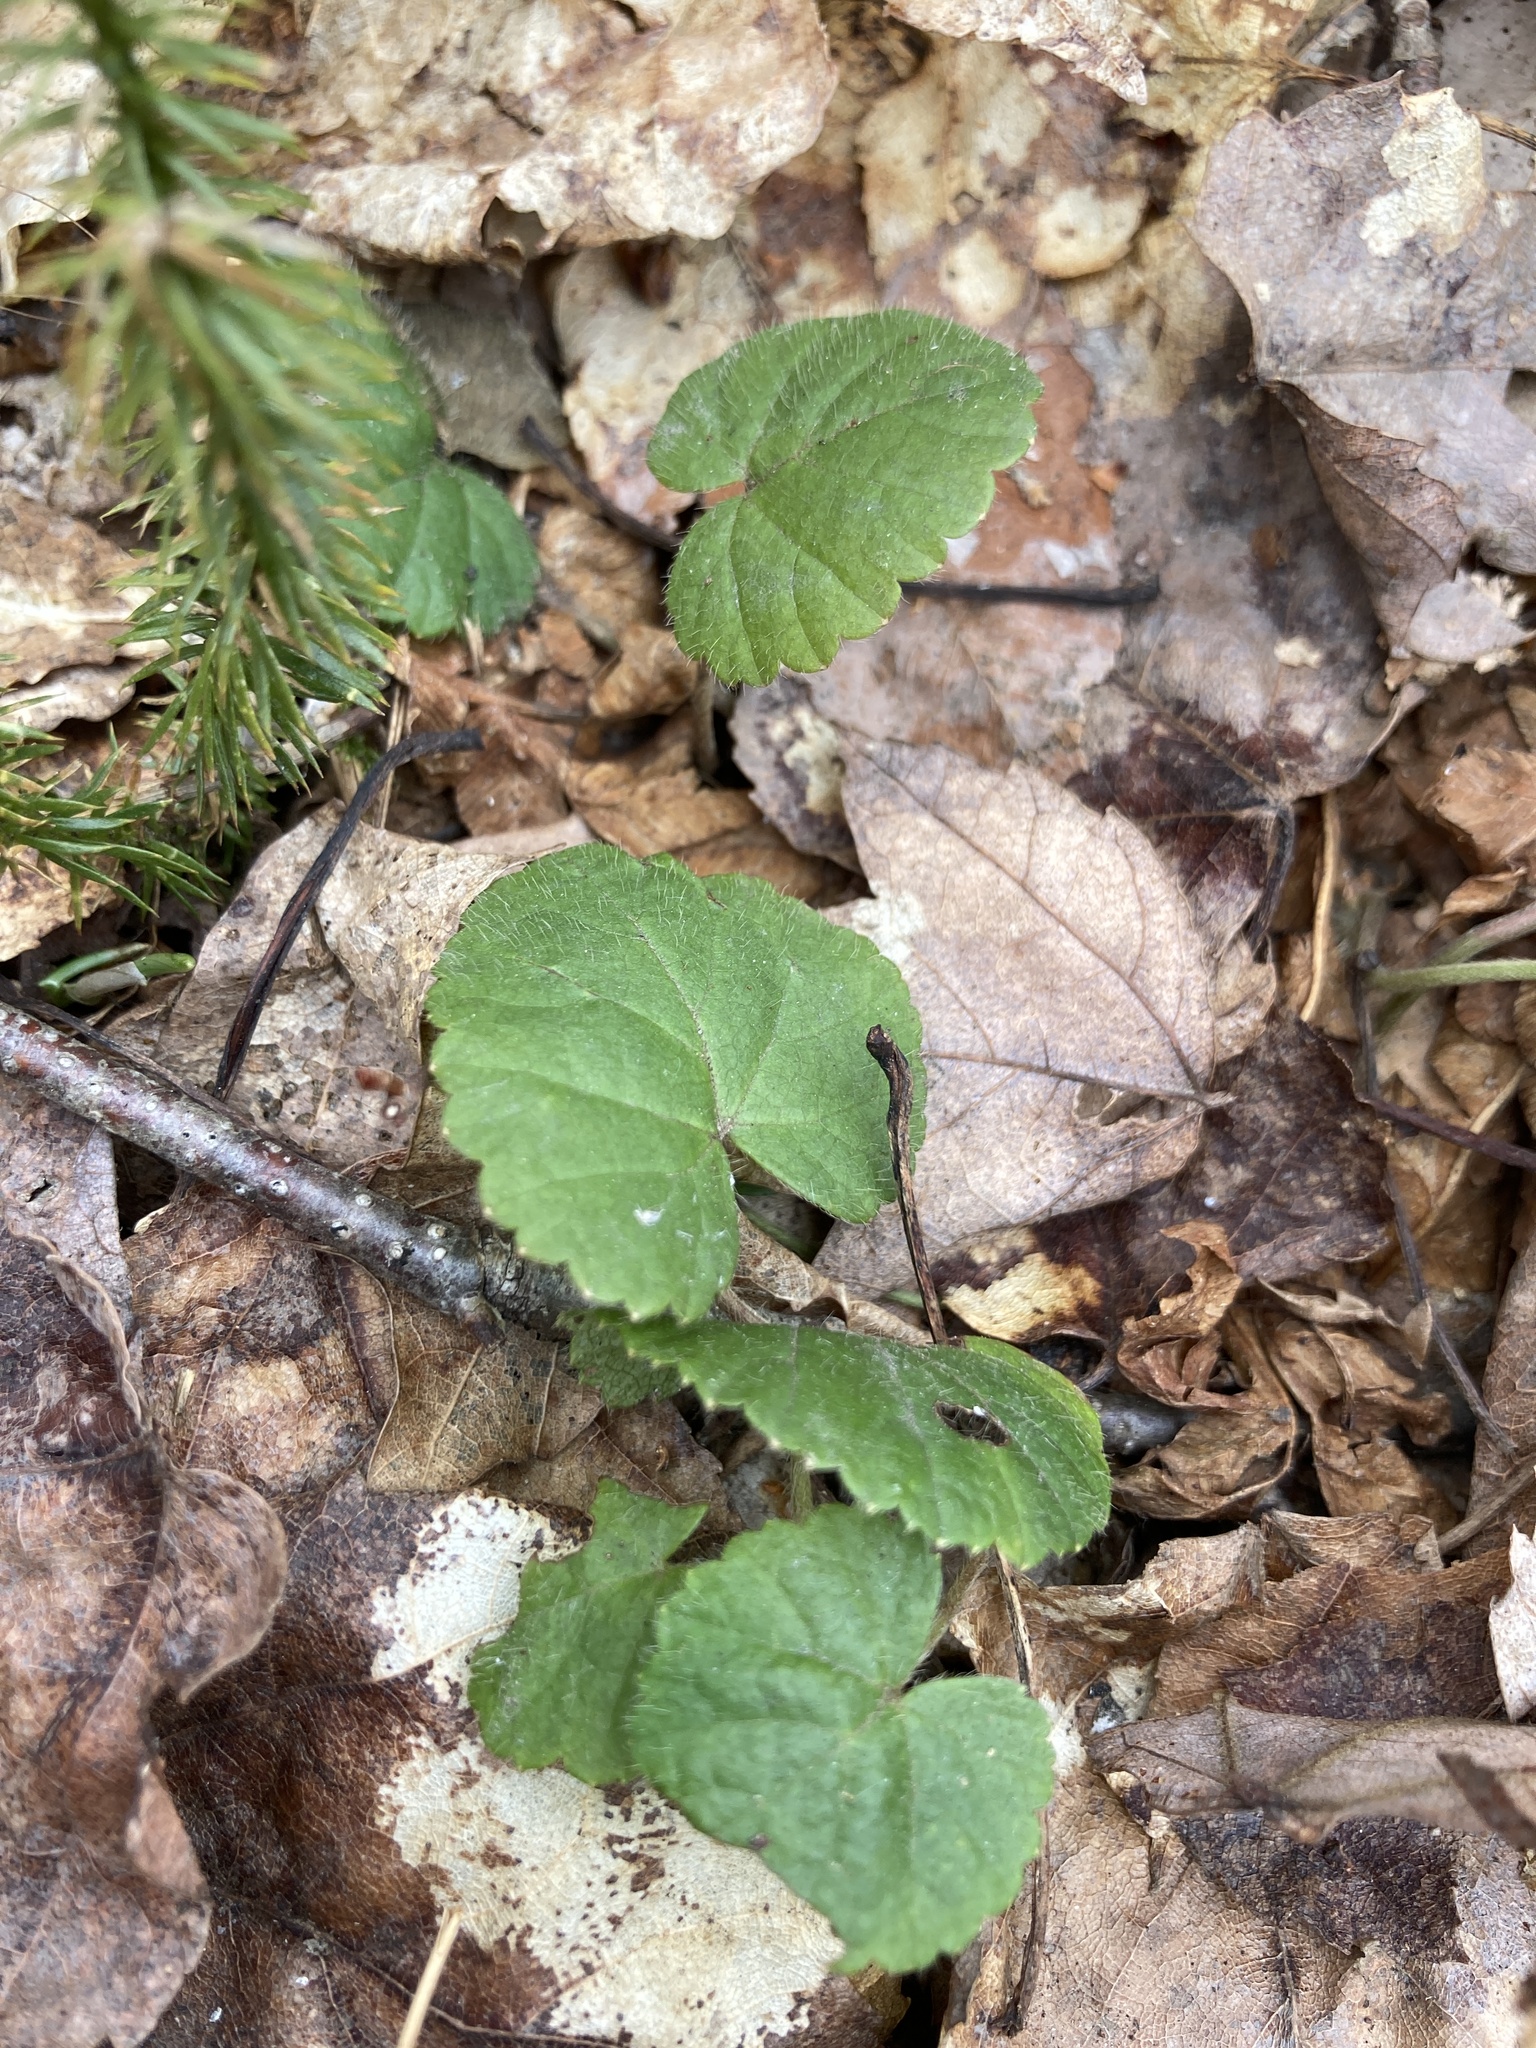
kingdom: Plantae
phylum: Tracheophyta
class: Magnoliopsida
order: Rosales
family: Rosaceae
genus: Dalibarda
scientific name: Dalibarda repens
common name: Dewdrop
